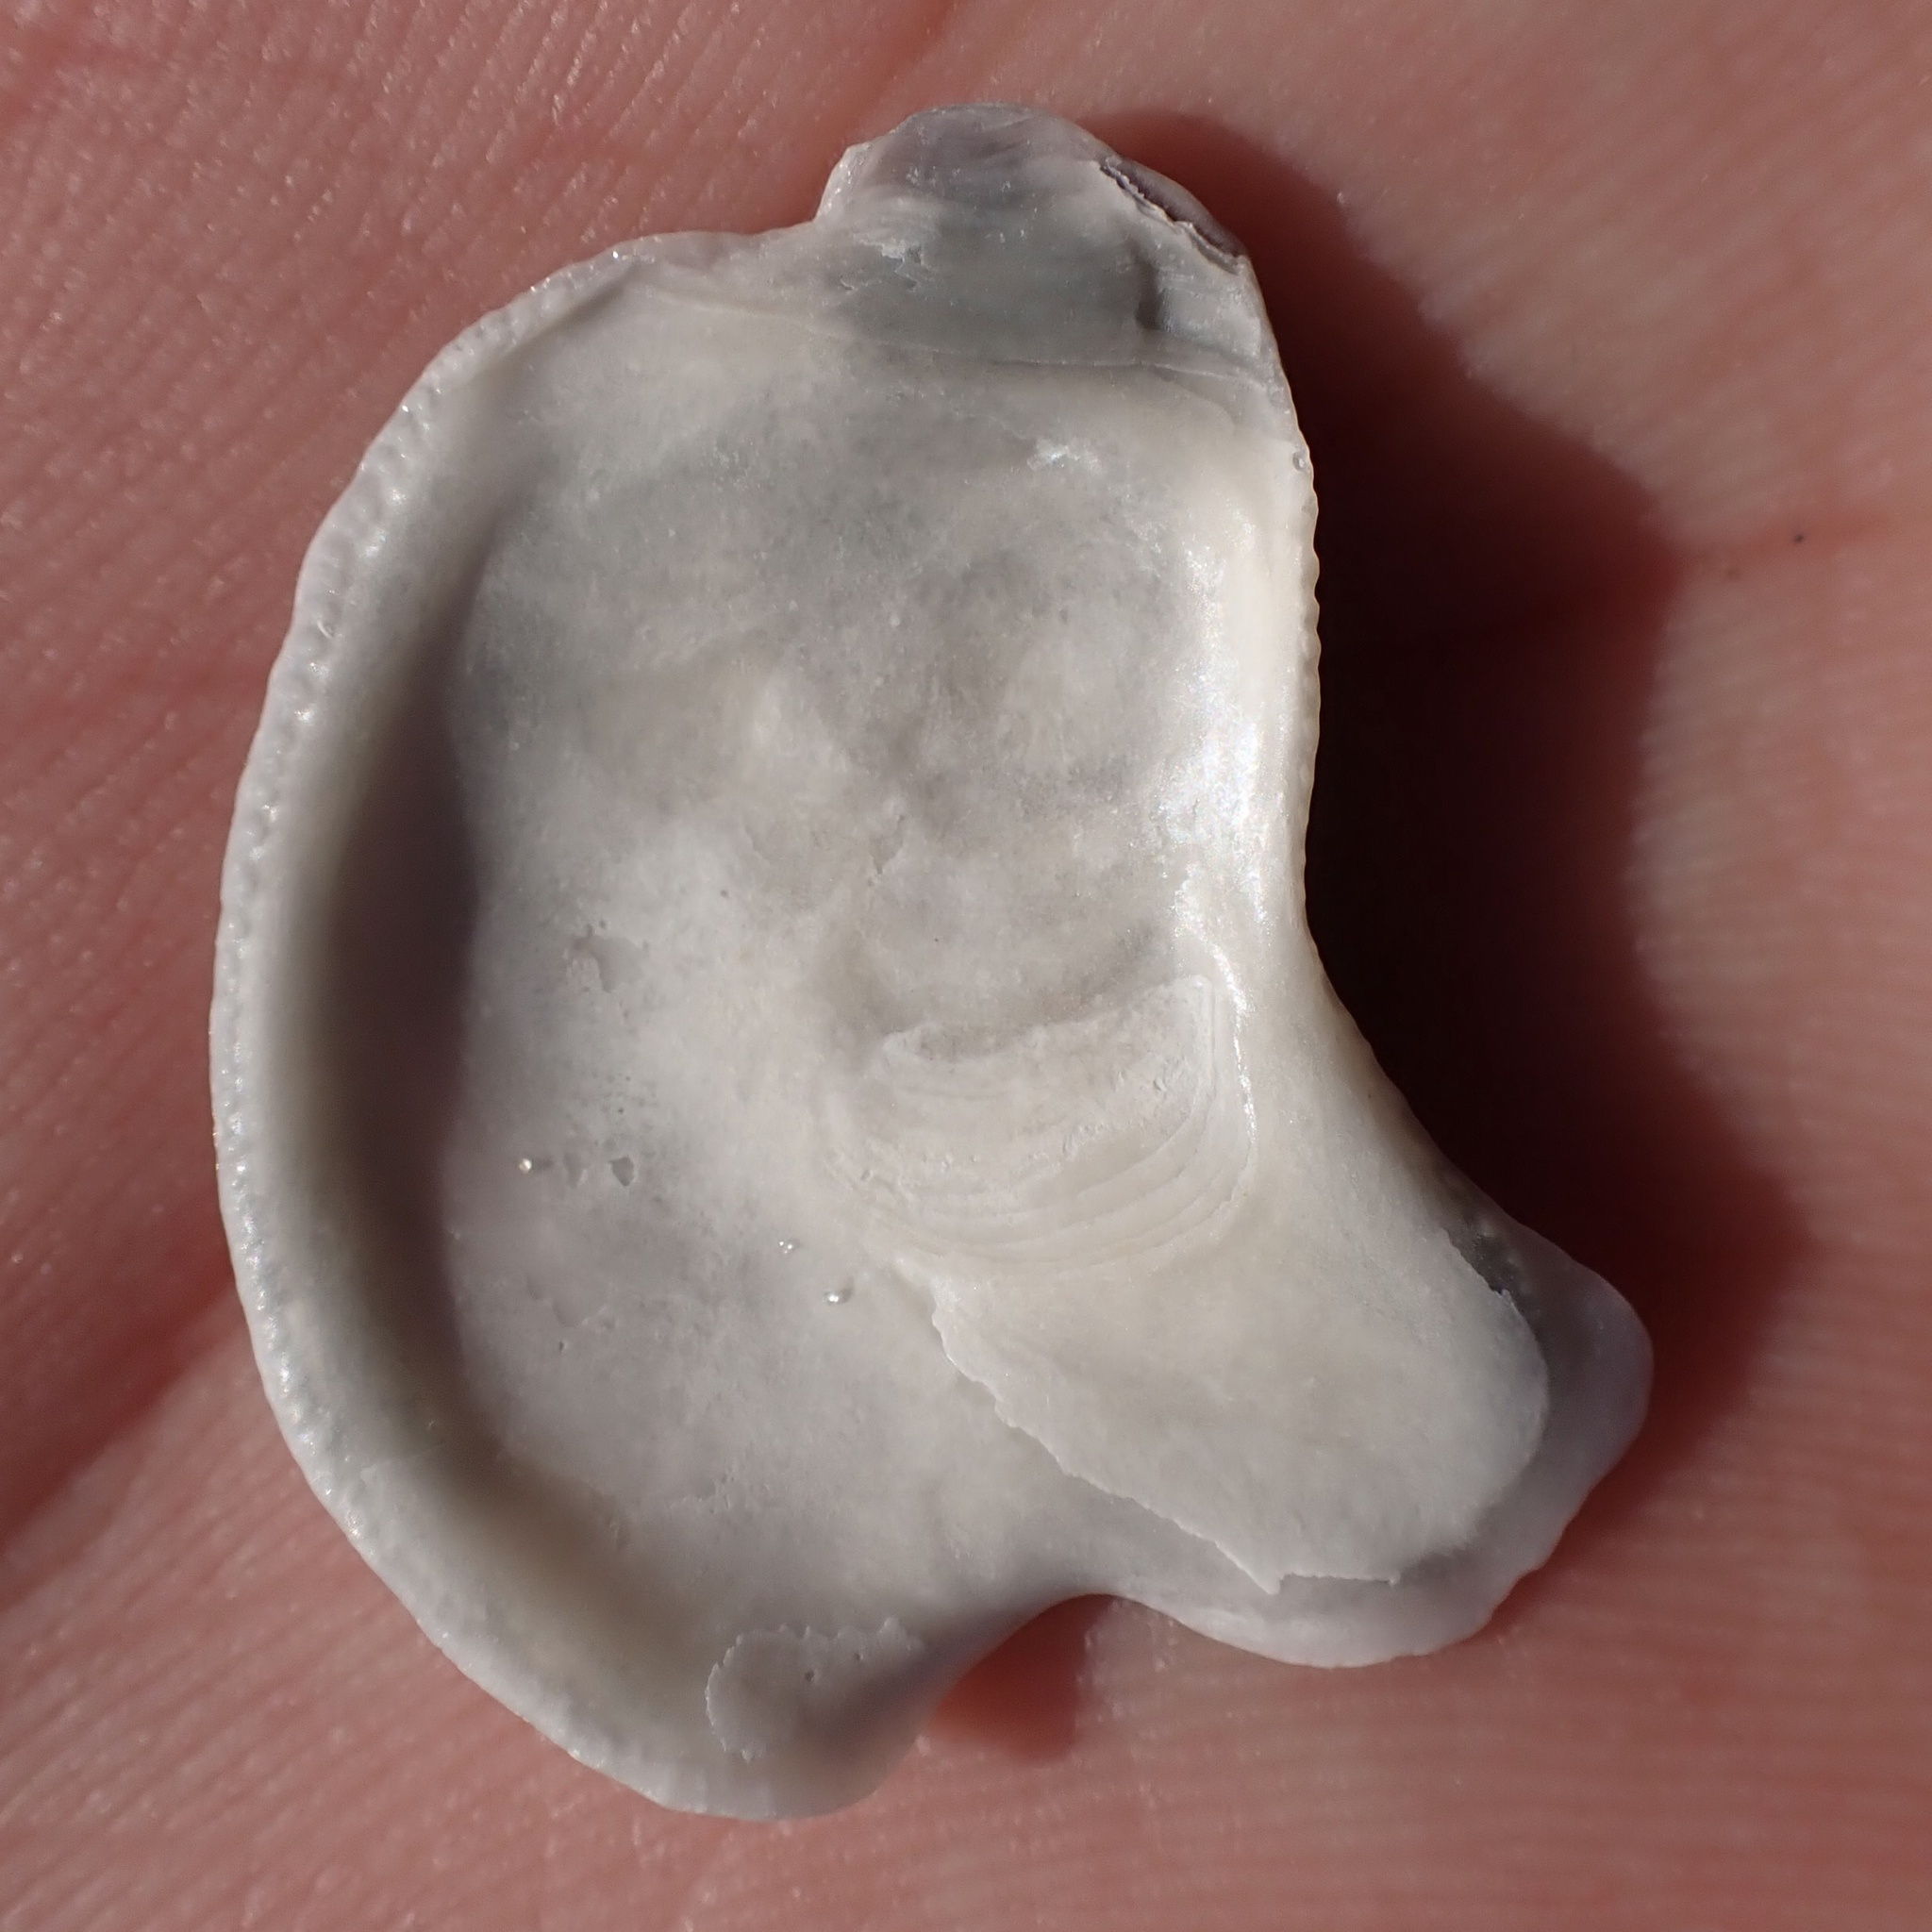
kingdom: Animalia
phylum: Mollusca
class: Bivalvia
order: Ostreida
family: Ostreidae
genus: Ostrea
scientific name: Ostrea equestris
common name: Crested oyster
